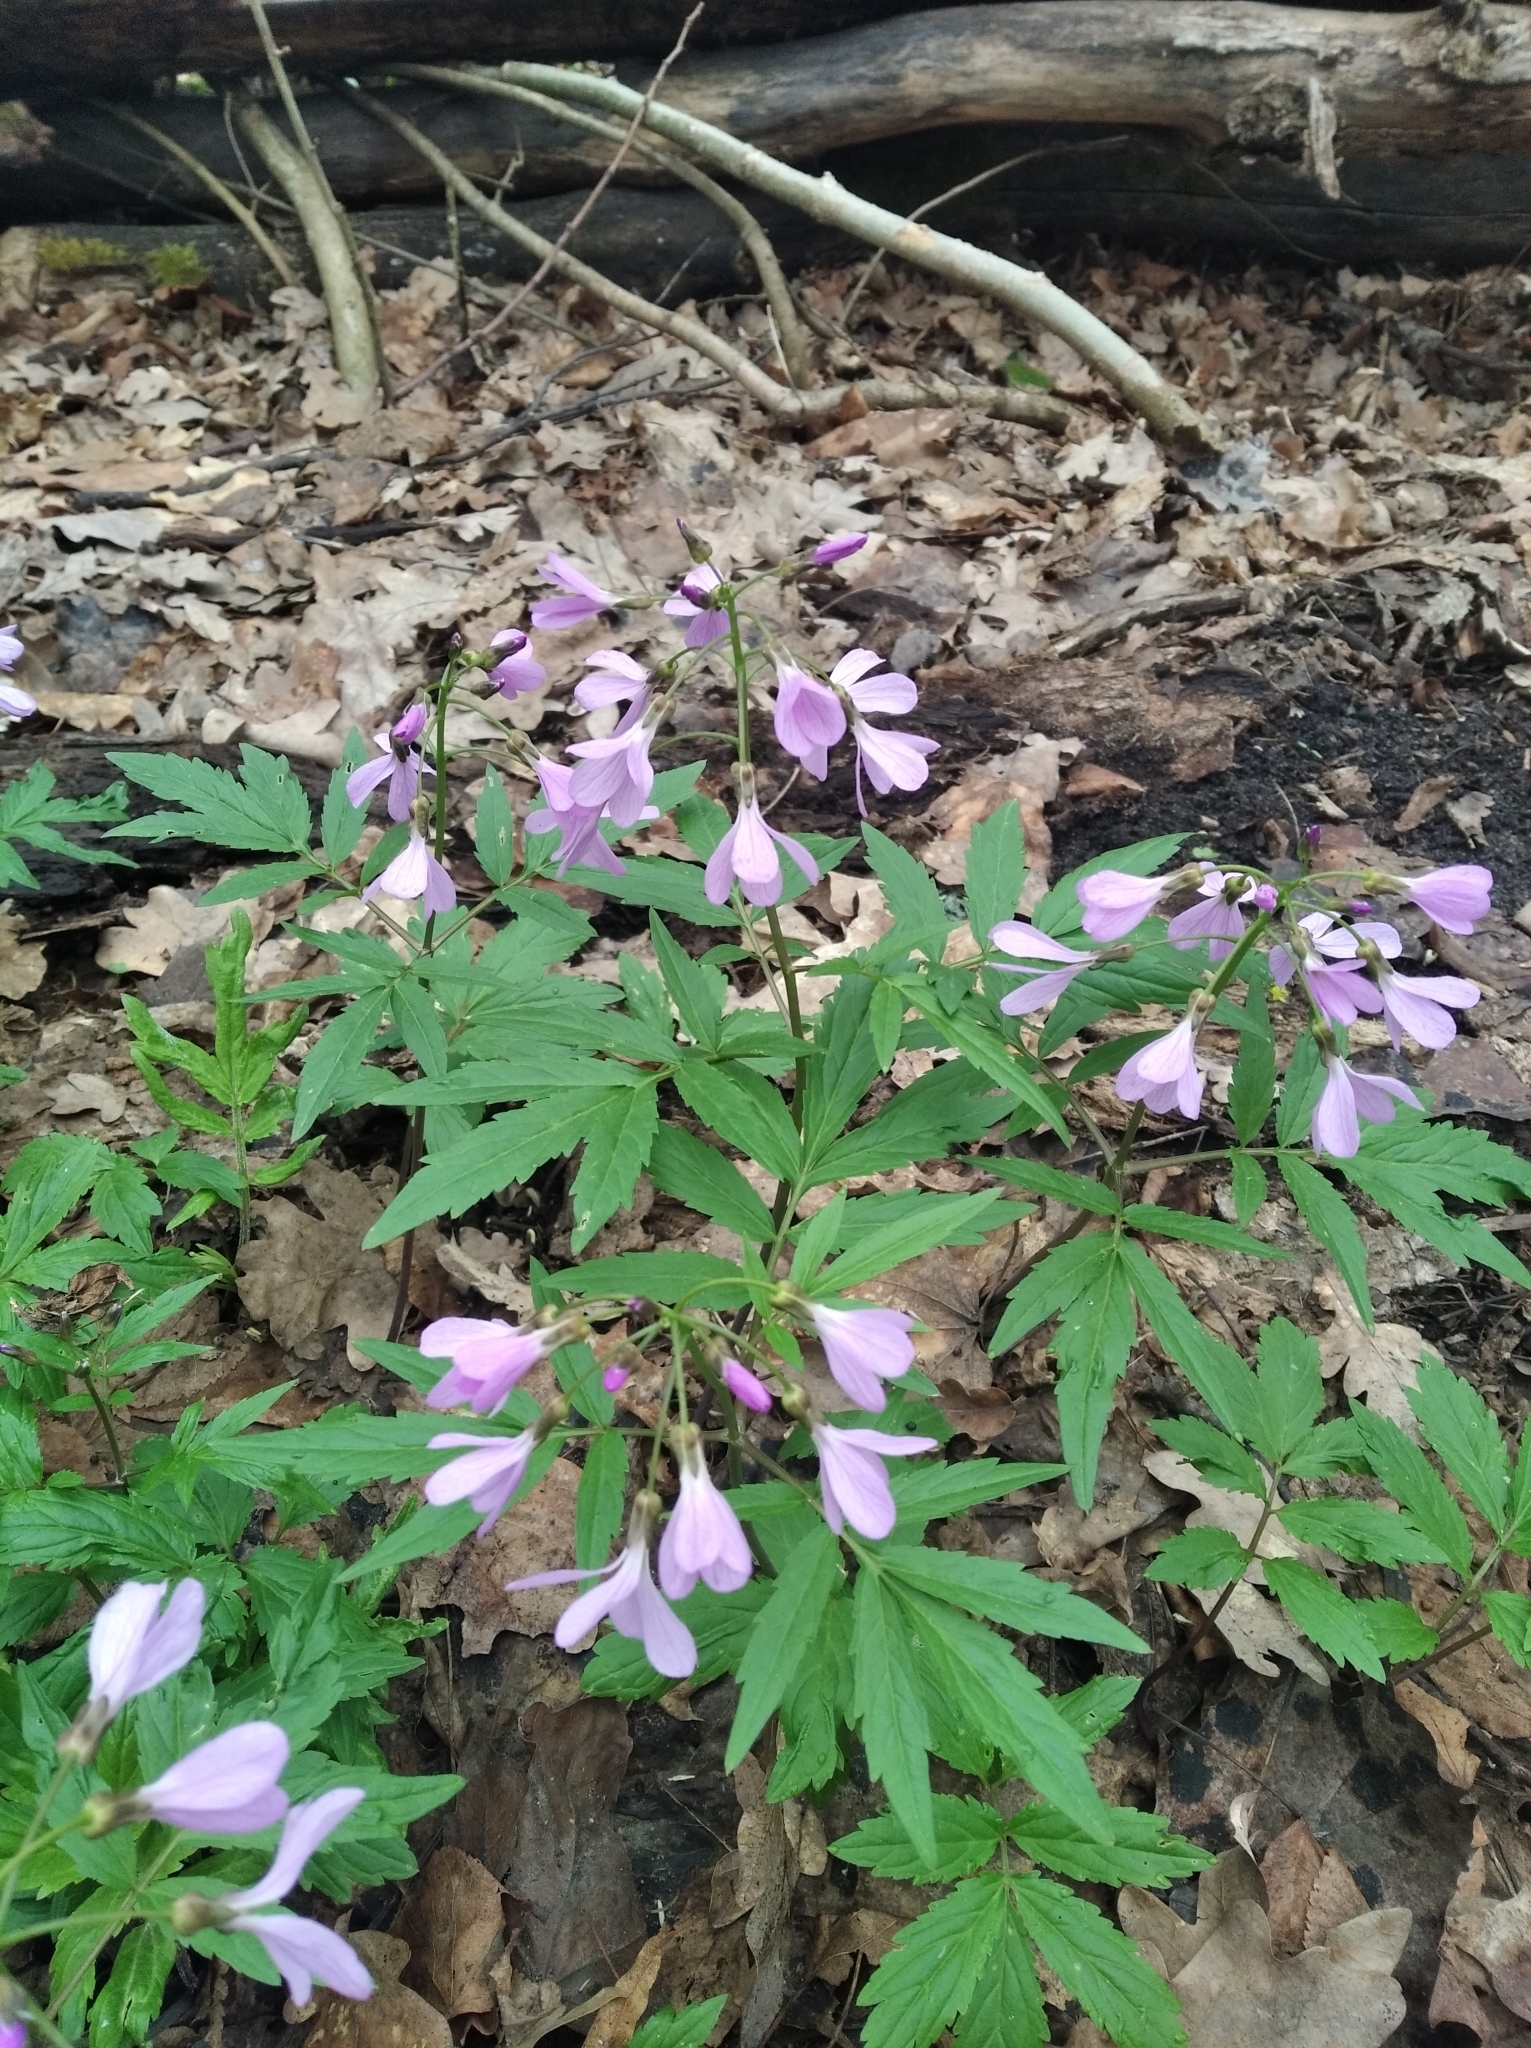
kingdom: Plantae
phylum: Tracheophyta
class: Magnoliopsida
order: Brassicales
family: Brassicaceae
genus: Cardamine
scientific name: Cardamine quinquefolia
